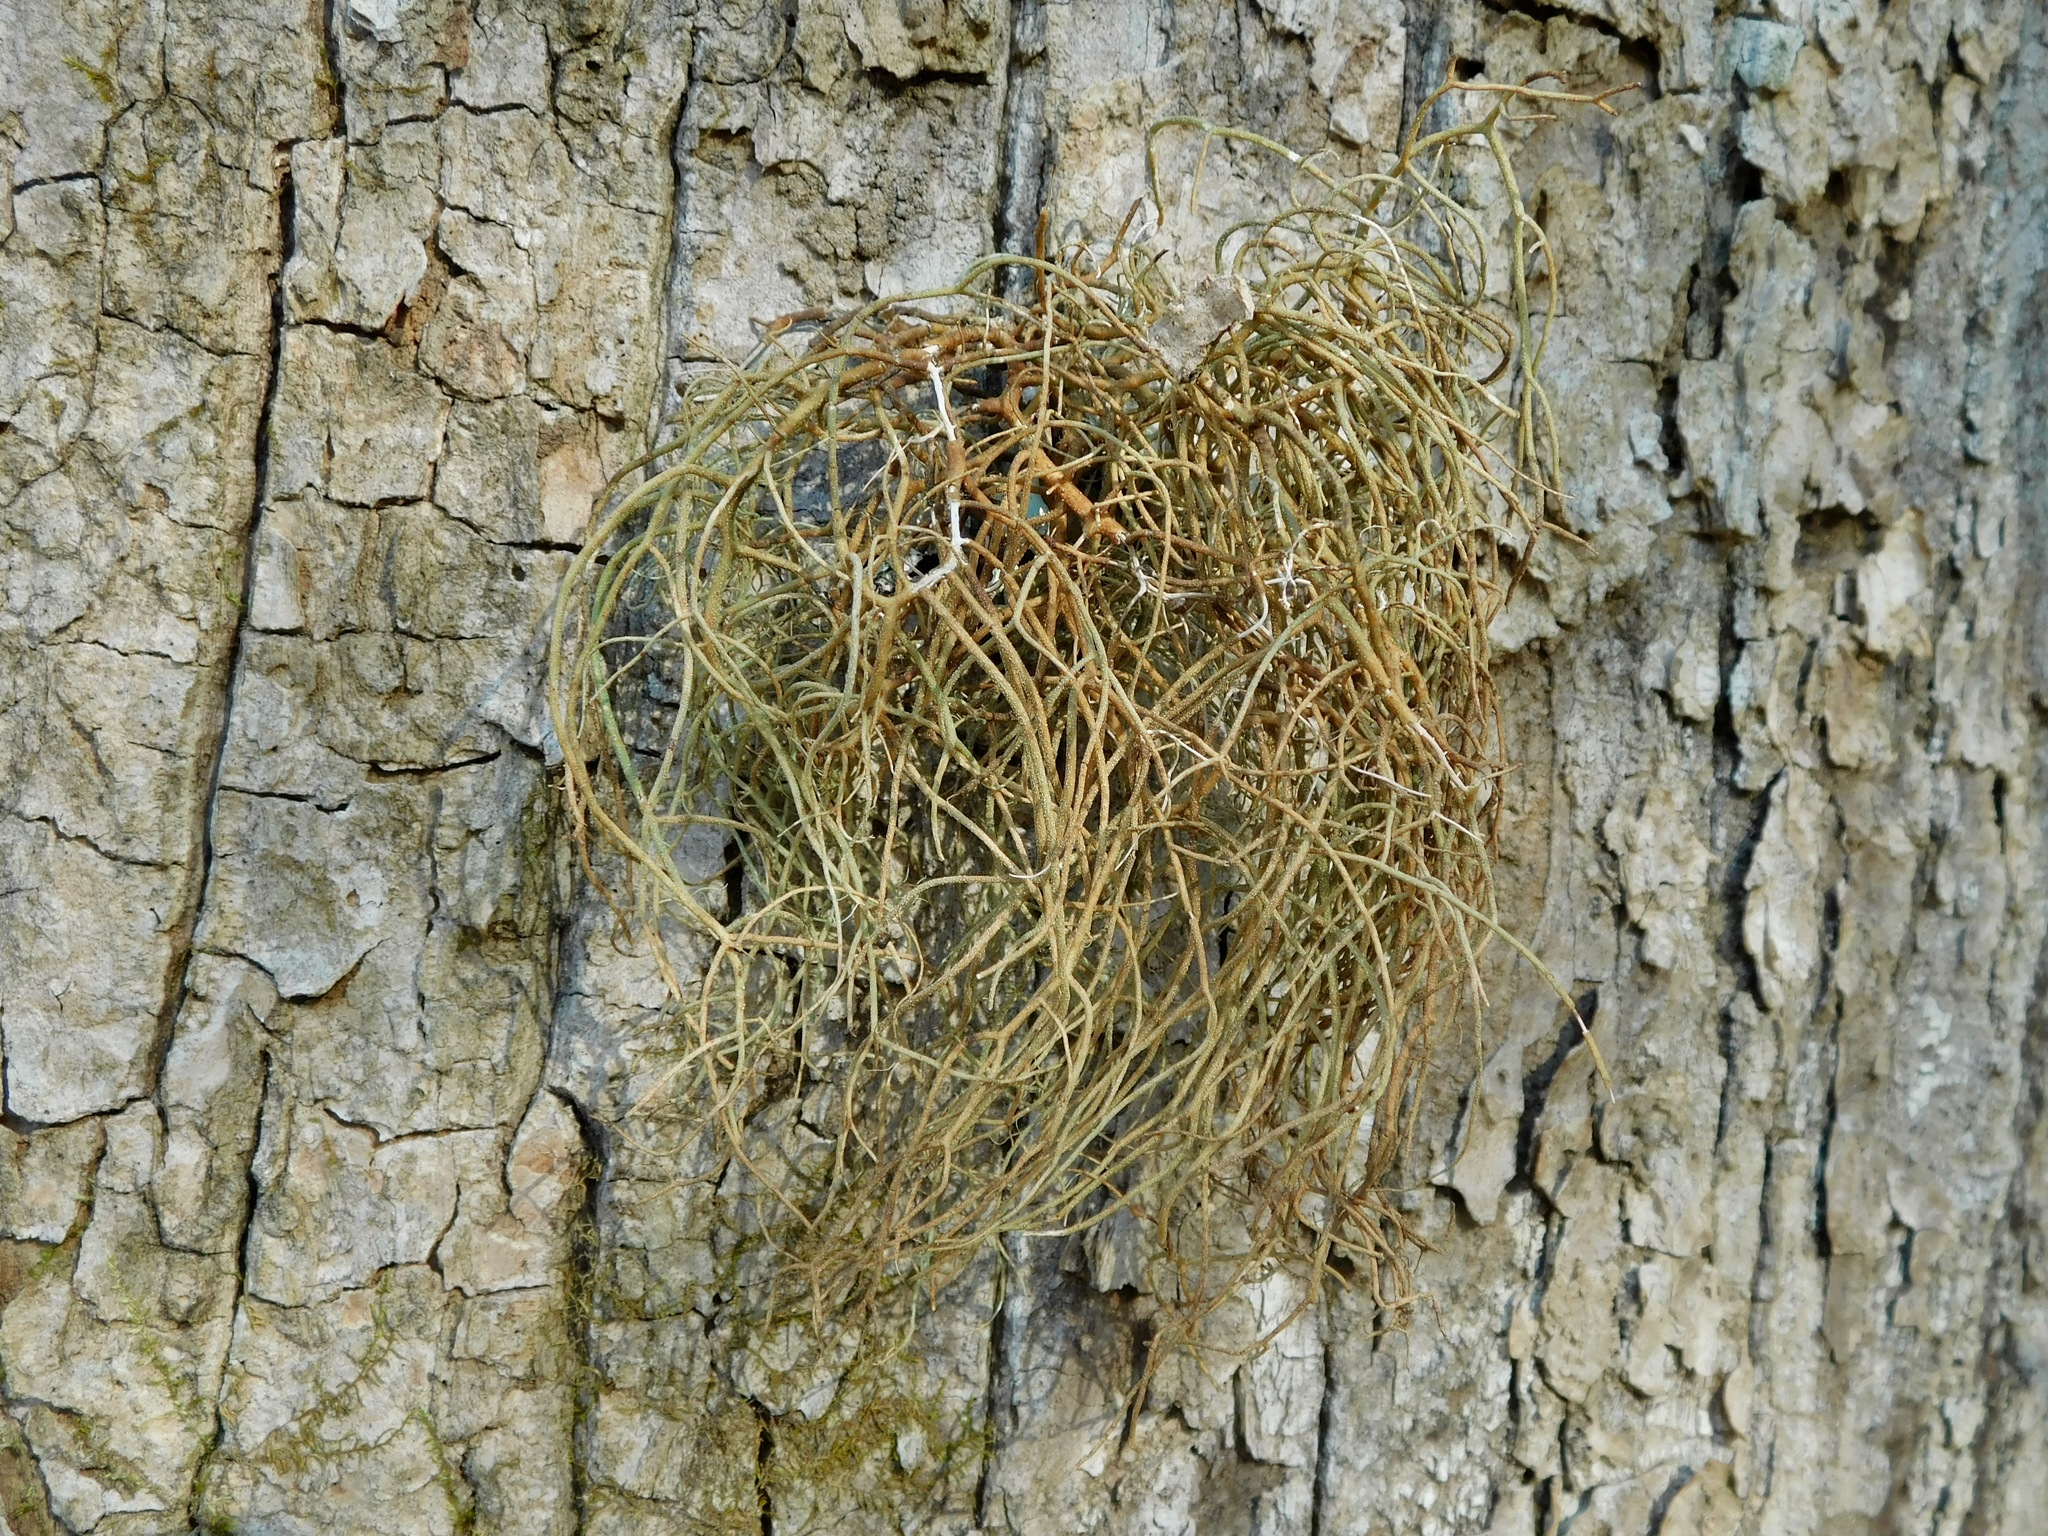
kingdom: Fungi
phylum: Ascomycota
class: Lecanoromycetes
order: Lecanorales
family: Parmeliaceae
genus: Usnea
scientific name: Usnea rubicunda
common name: Red beard lichen
